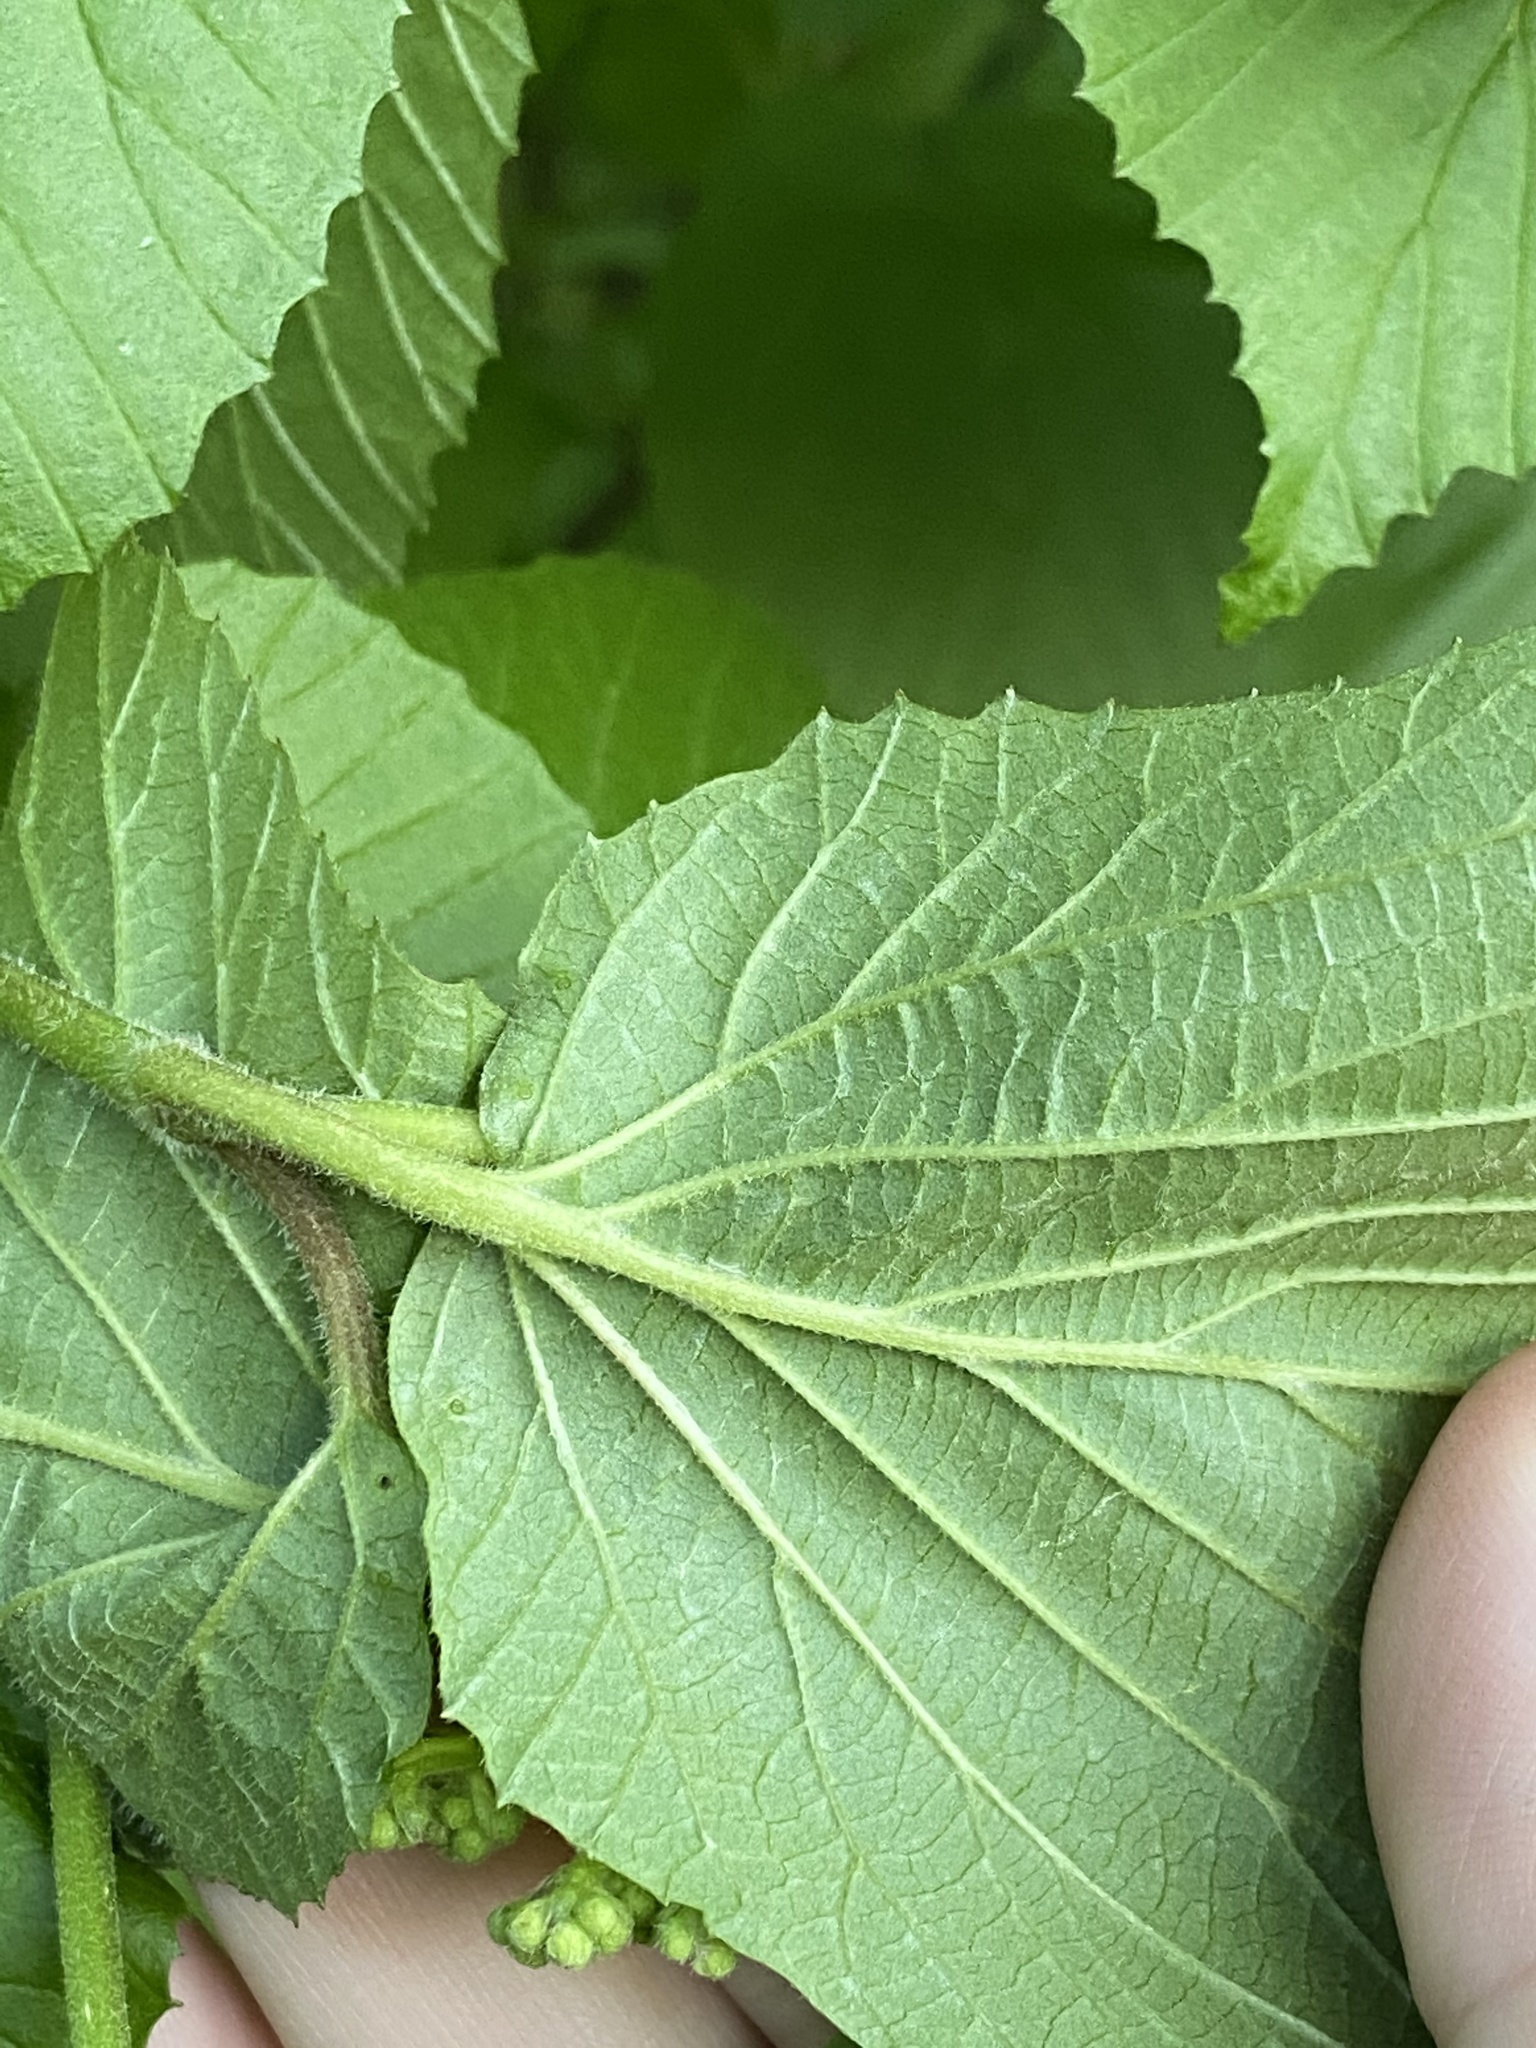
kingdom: Plantae
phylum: Tracheophyta
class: Magnoliopsida
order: Dipsacales
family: Viburnaceae
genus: Viburnum
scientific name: Viburnum dilatatum
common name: Linden arrowwood
